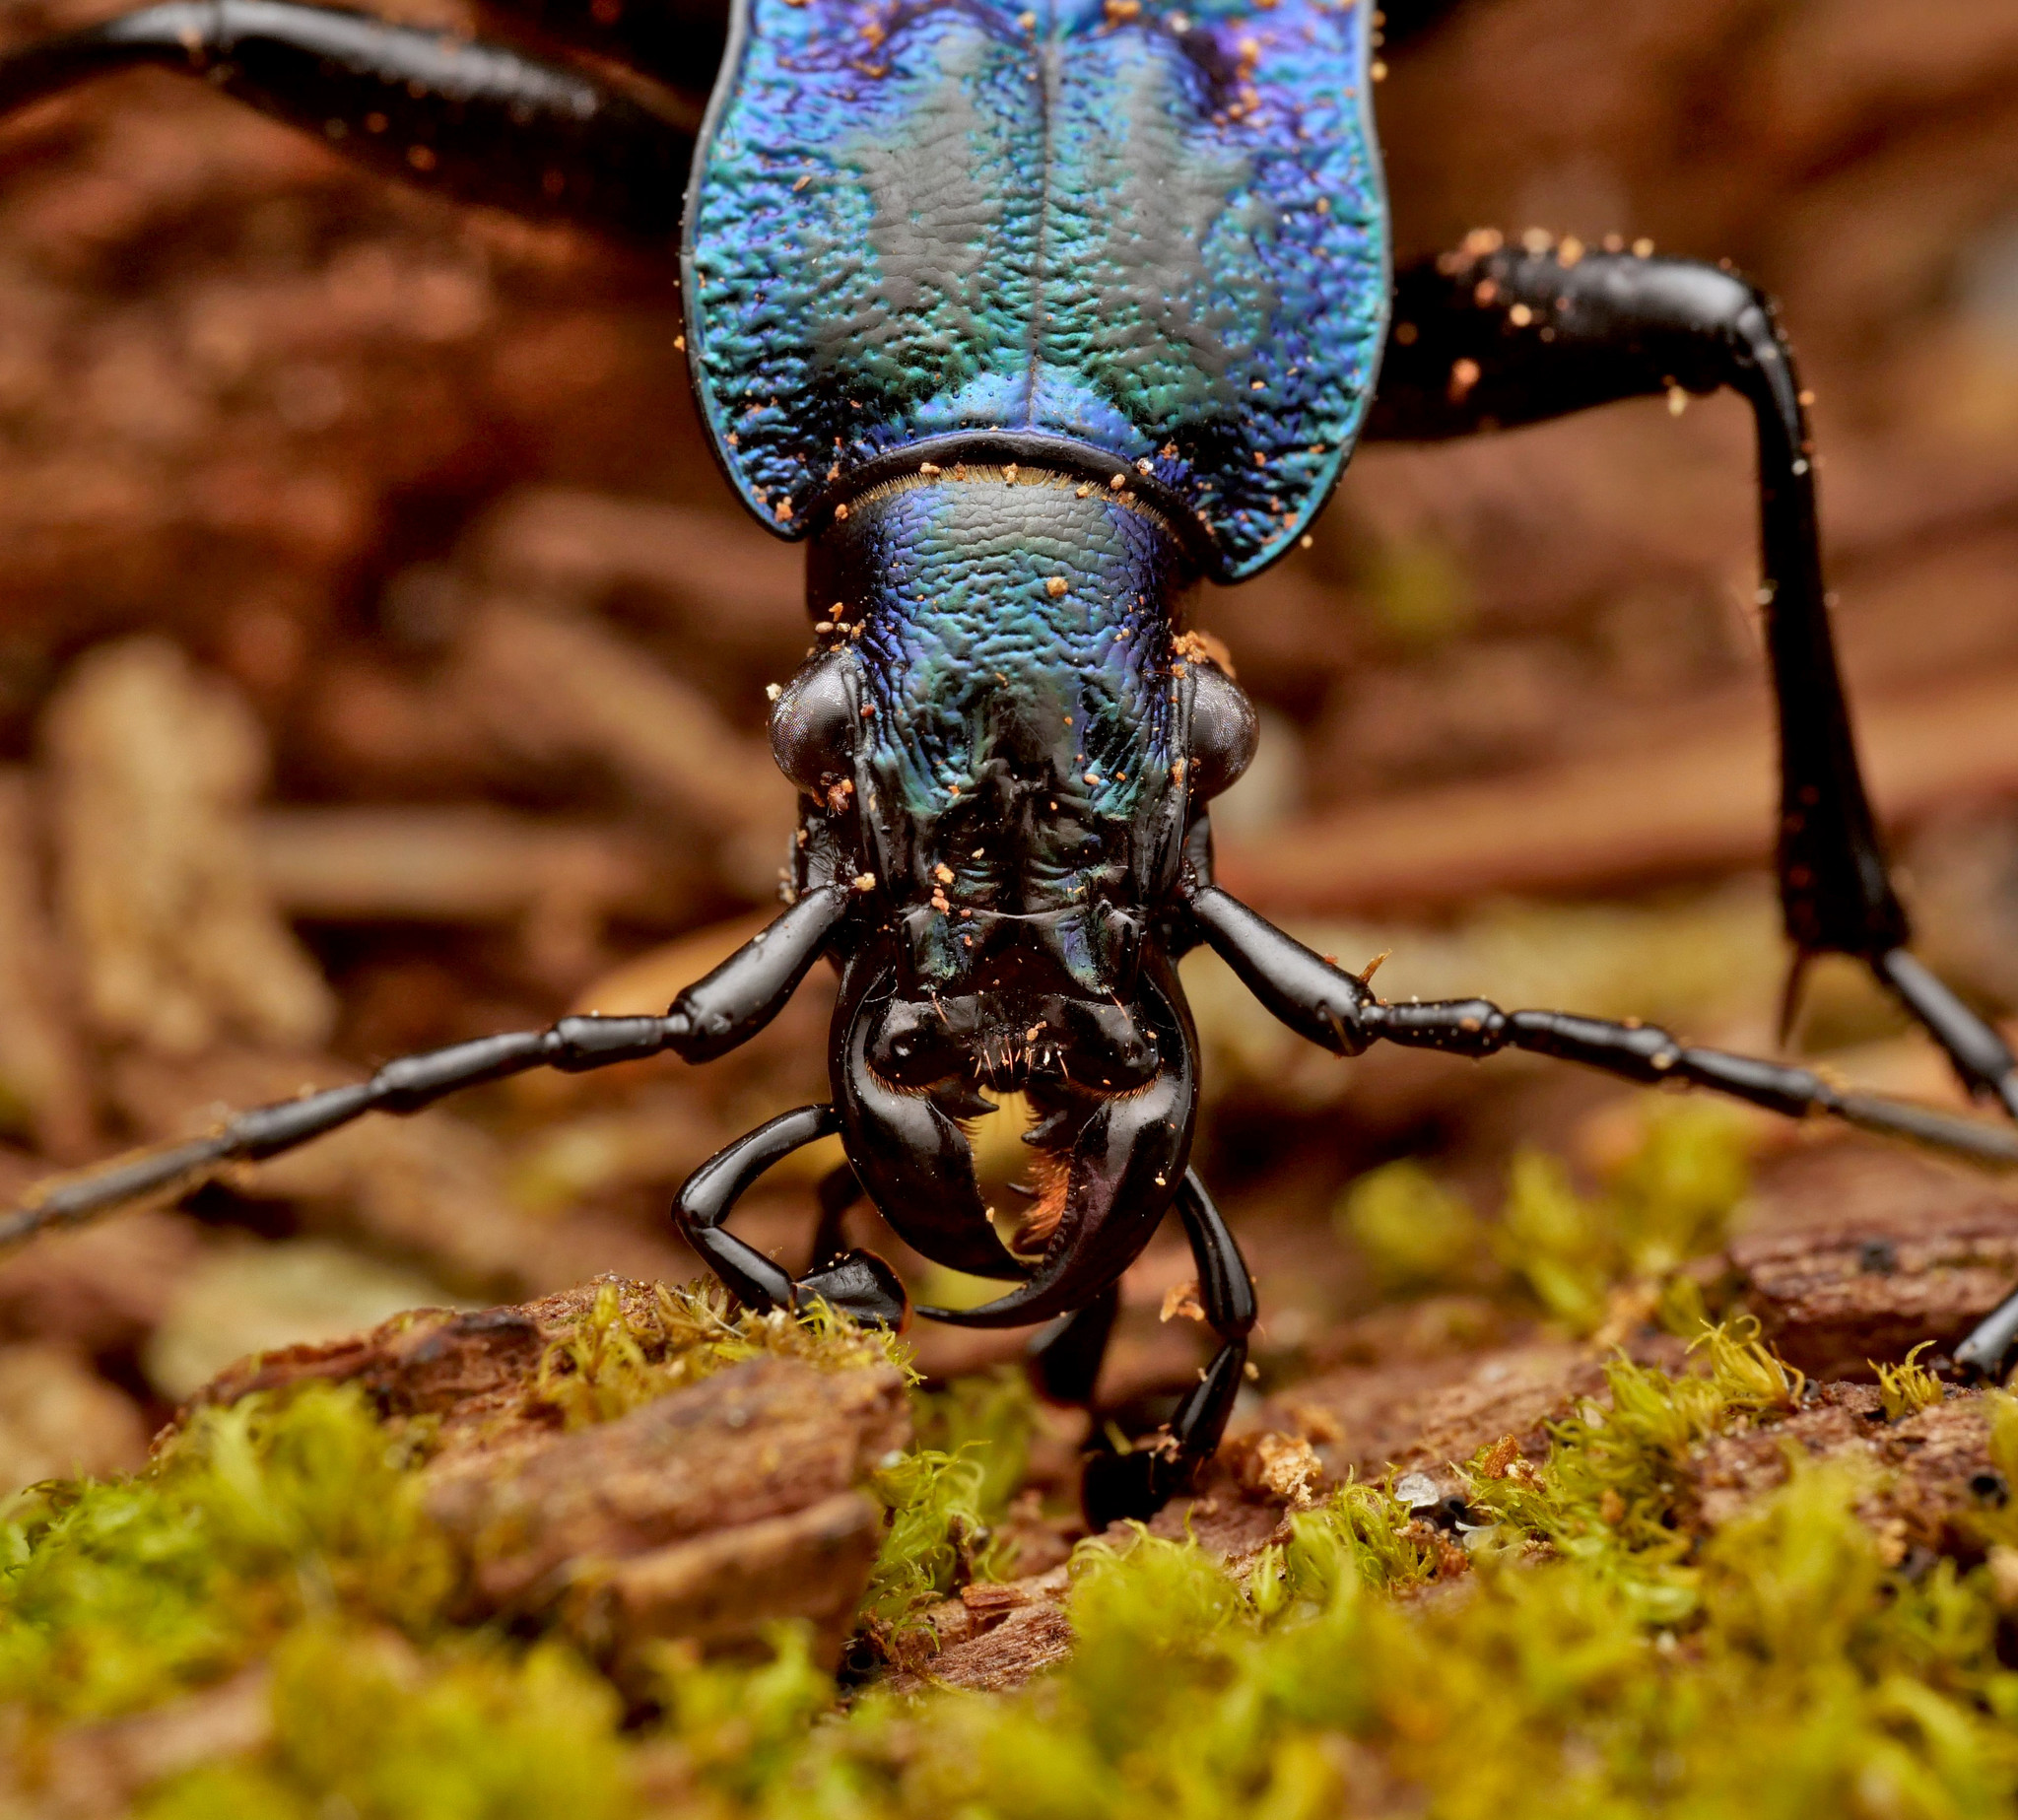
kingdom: Animalia
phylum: Arthropoda
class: Insecta
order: Coleoptera
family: Carabidae
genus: Carabus
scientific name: Carabus intricatus
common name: Blue ground beetle
